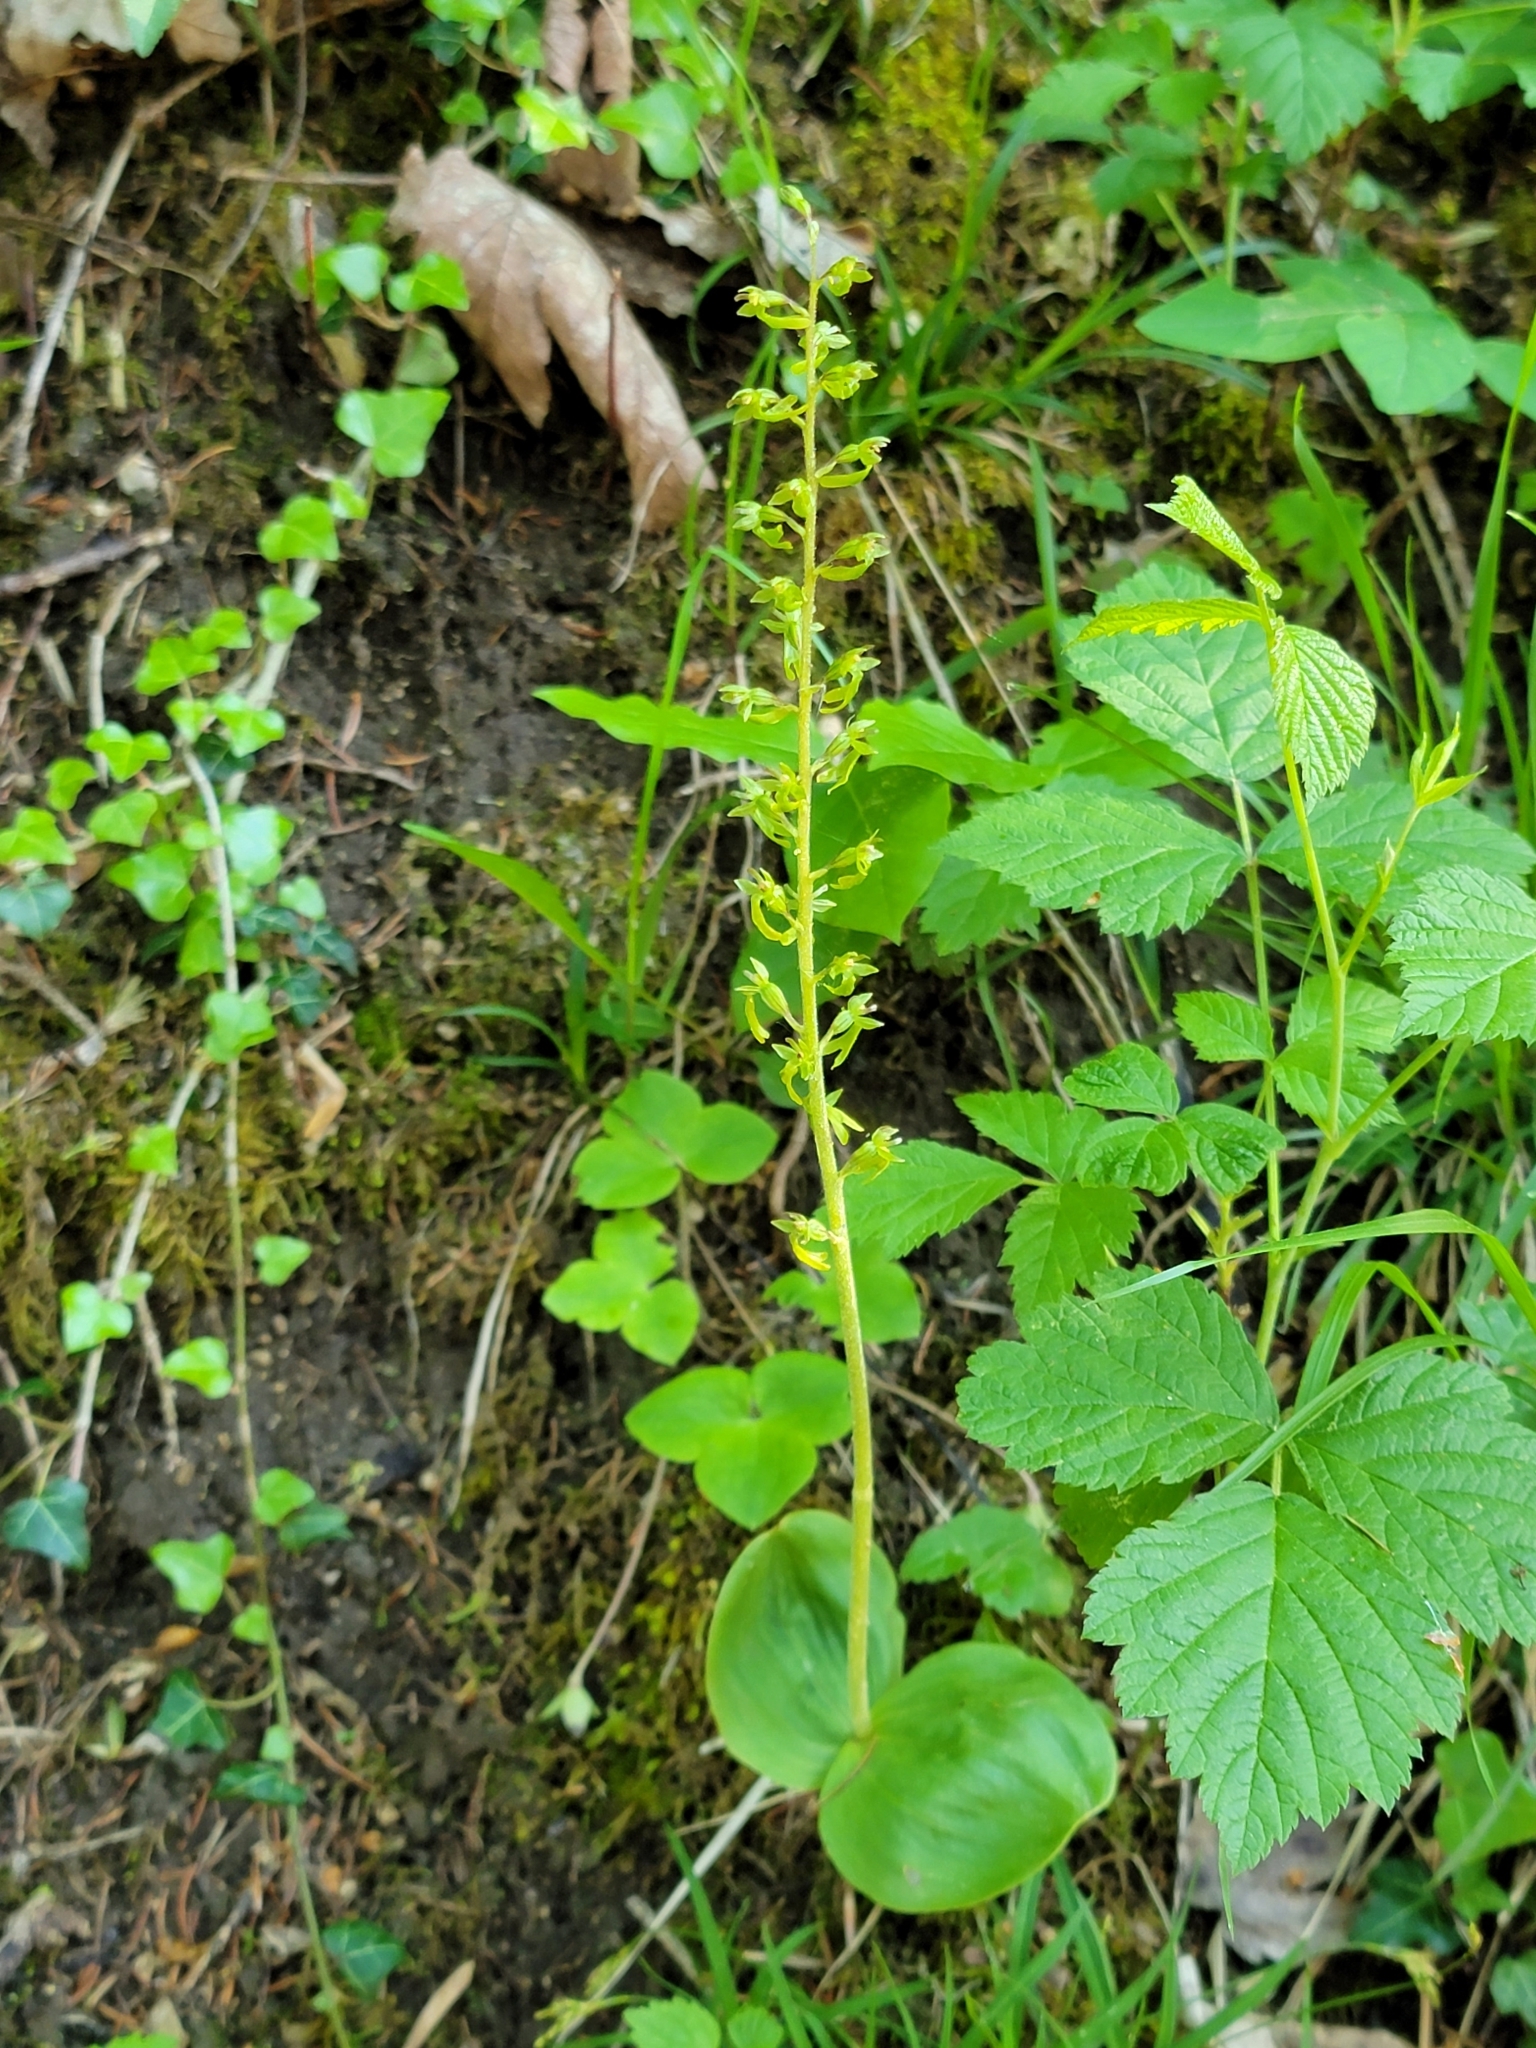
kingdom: Plantae
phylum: Tracheophyta
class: Liliopsida
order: Asparagales
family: Orchidaceae
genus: Neottia
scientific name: Neottia ovata
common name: Common twayblade
